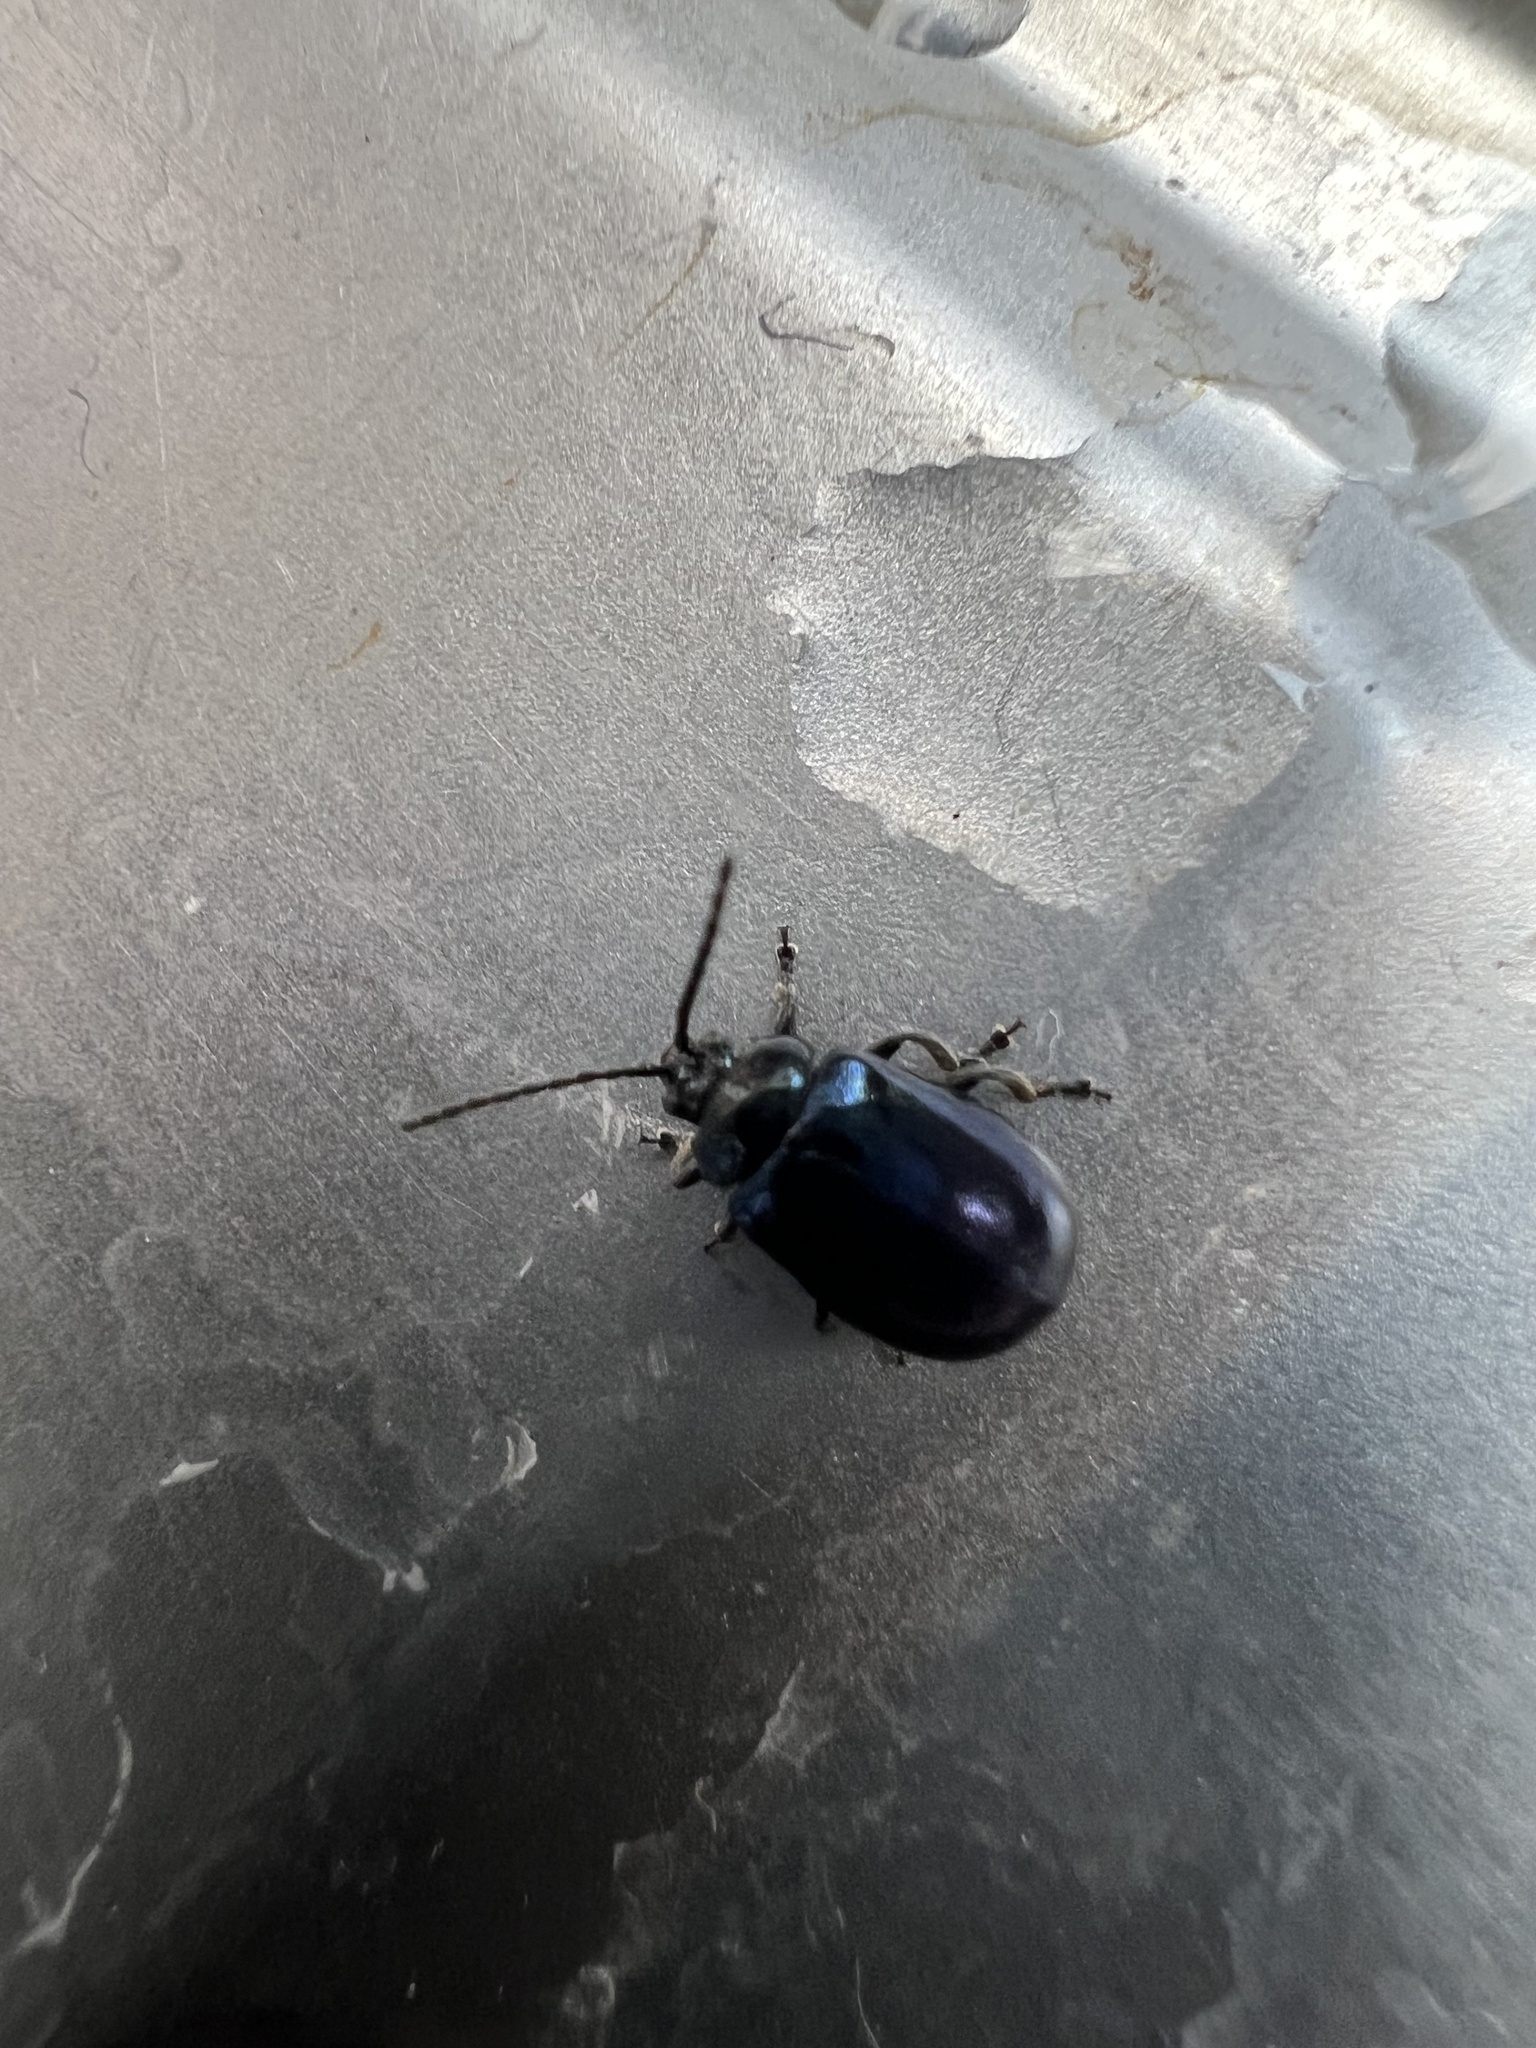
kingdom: Animalia
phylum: Arthropoda
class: Insecta
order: Coleoptera
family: Chrysomelidae
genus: Agelastica
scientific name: Agelastica alni
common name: Alder leaf beetle
